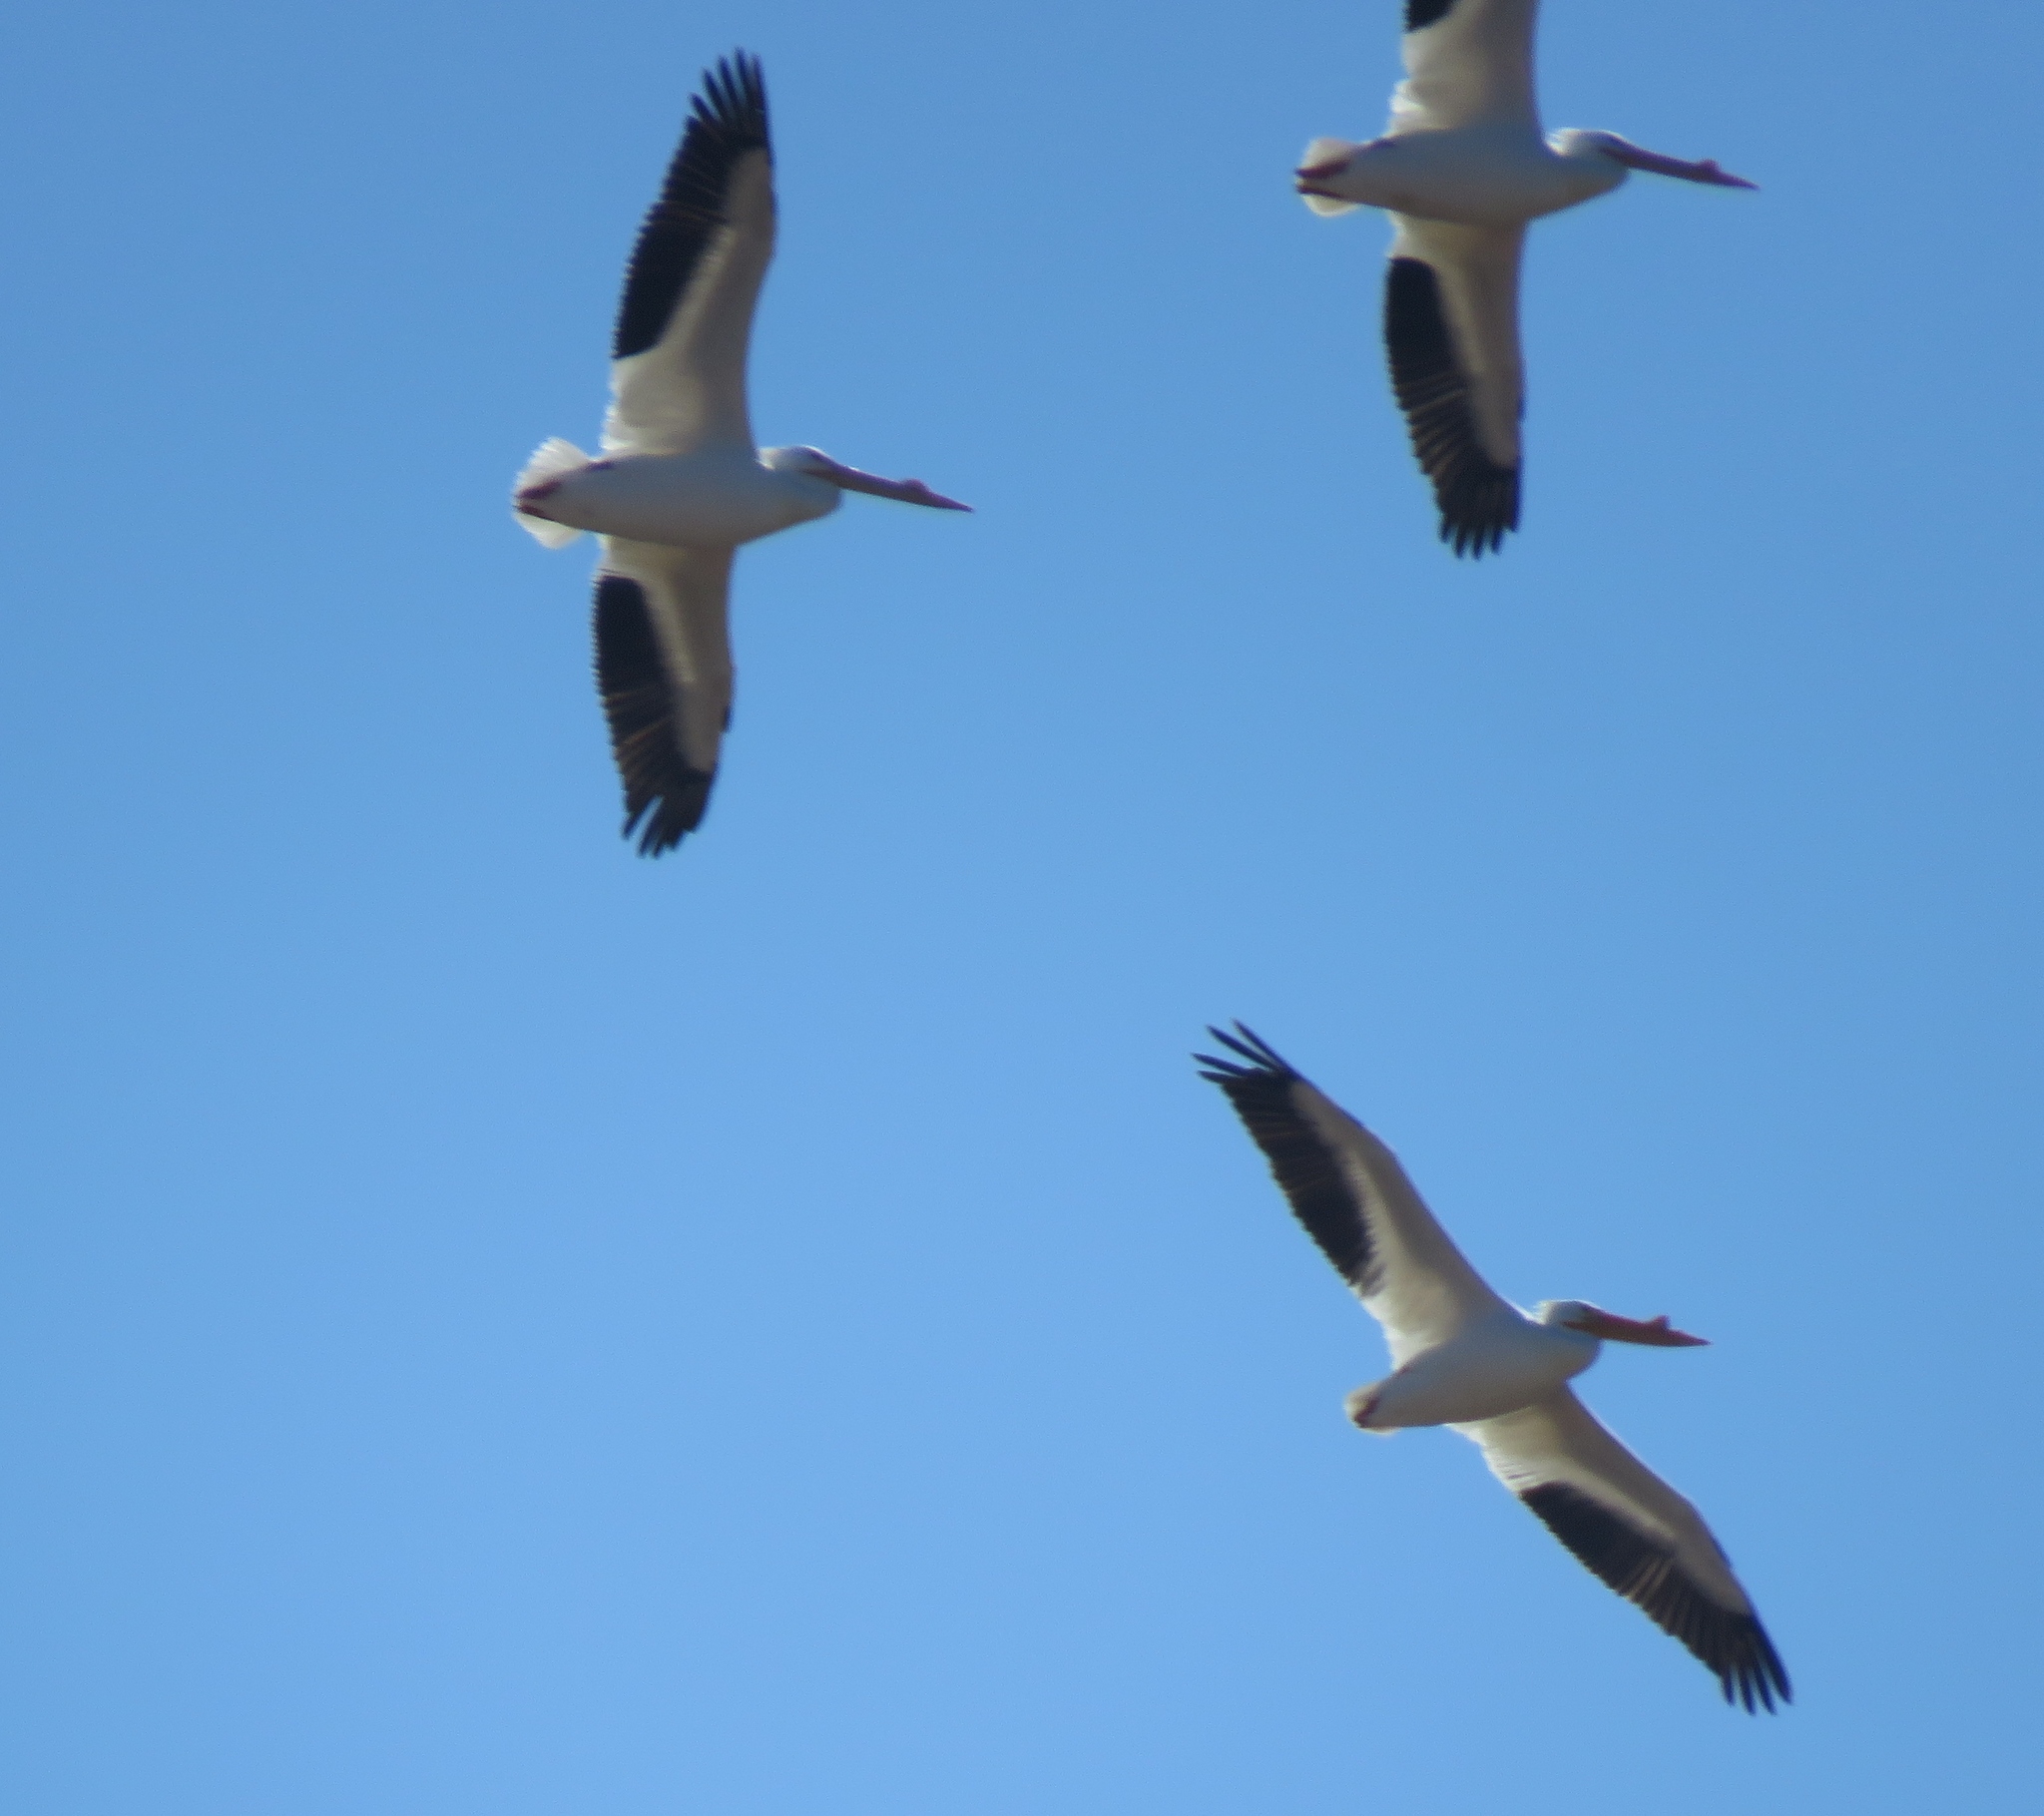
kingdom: Animalia
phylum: Chordata
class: Aves
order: Pelecaniformes
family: Pelecanidae
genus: Pelecanus
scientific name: Pelecanus erythrorhynchos
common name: American white pelican
